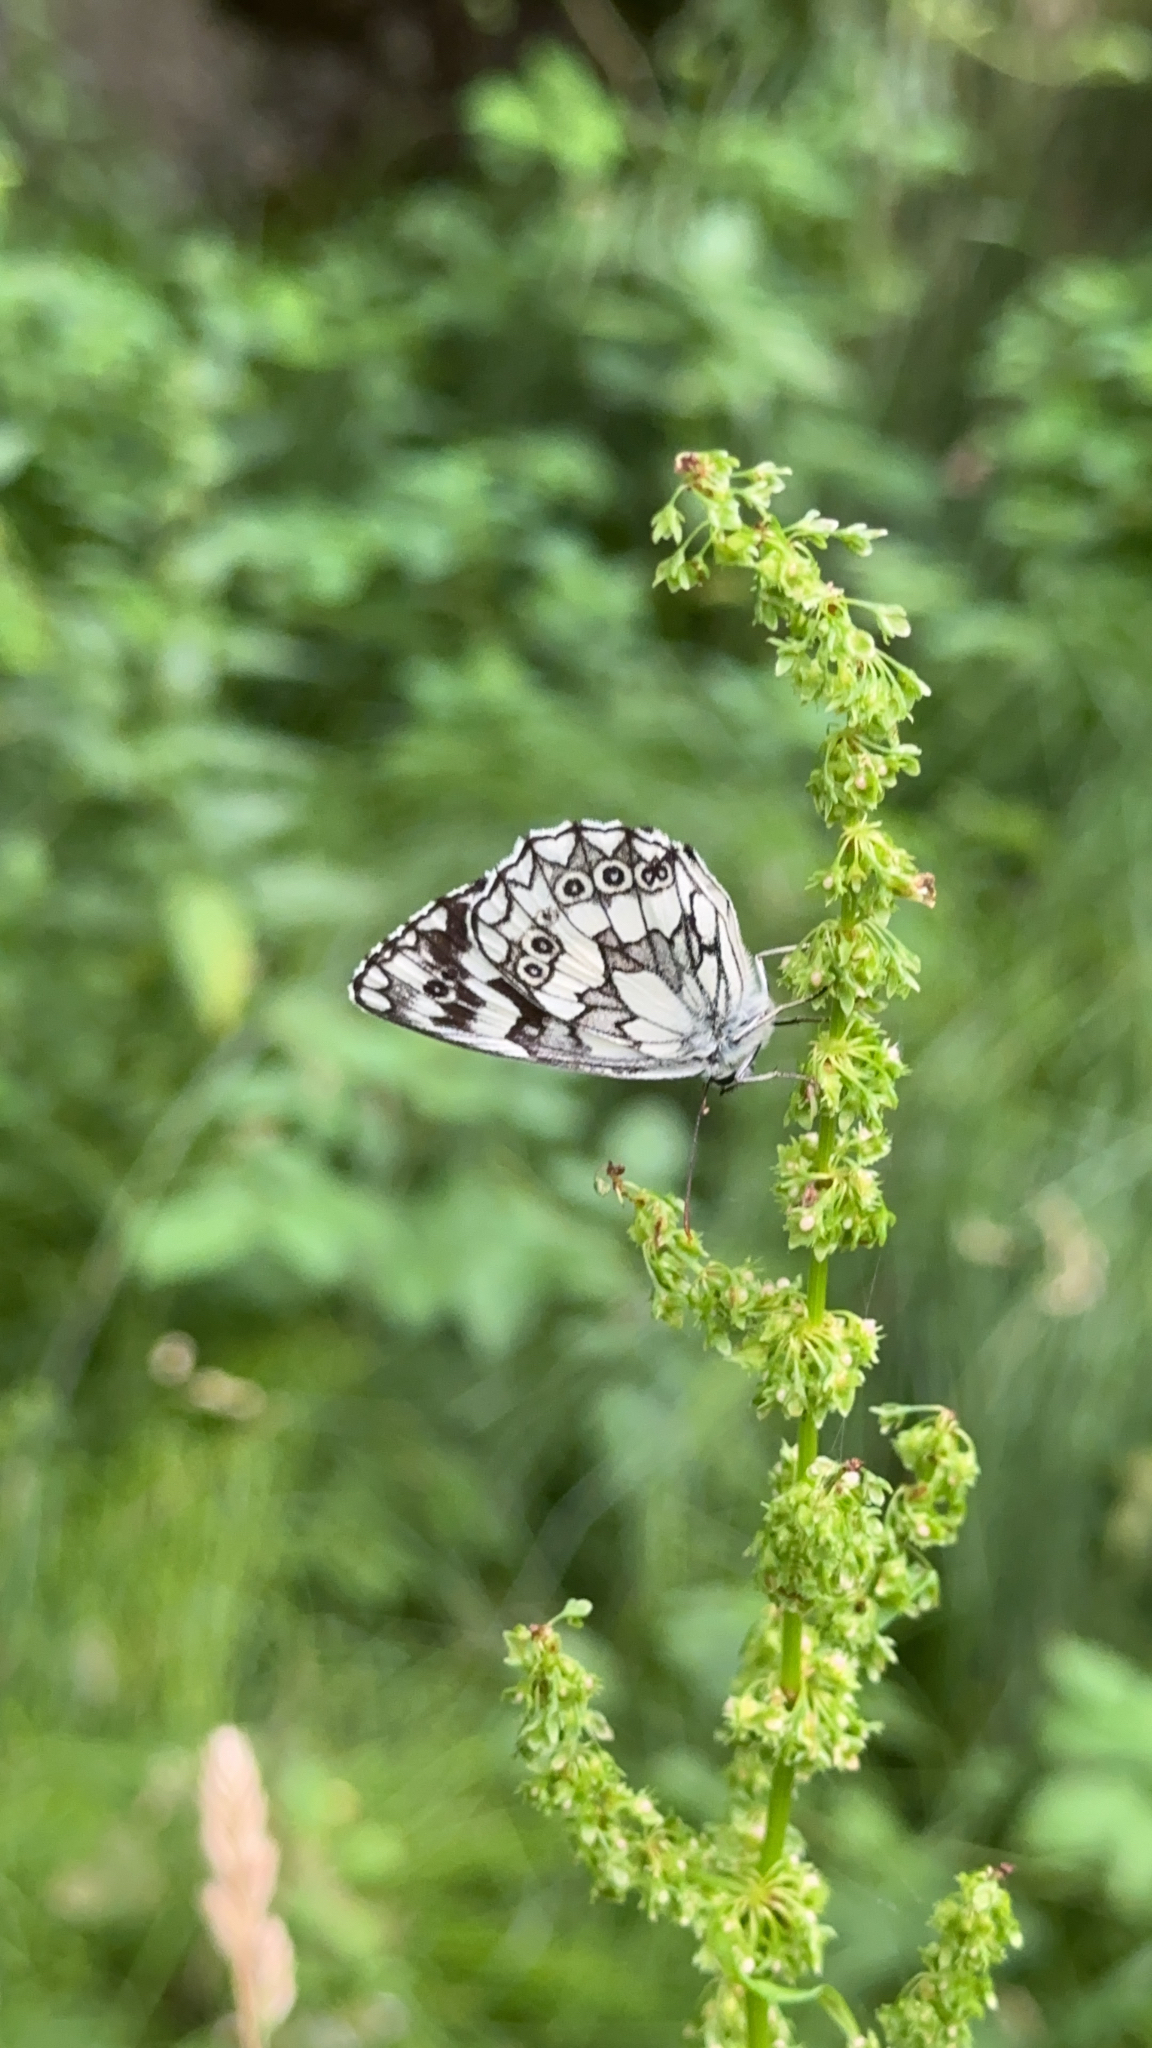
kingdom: Animalia
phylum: Arthropoda
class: Insecta
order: Lepidoptera
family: Nymphalidae
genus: Melanargia
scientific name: Melanargia galathea
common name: Marbled white
